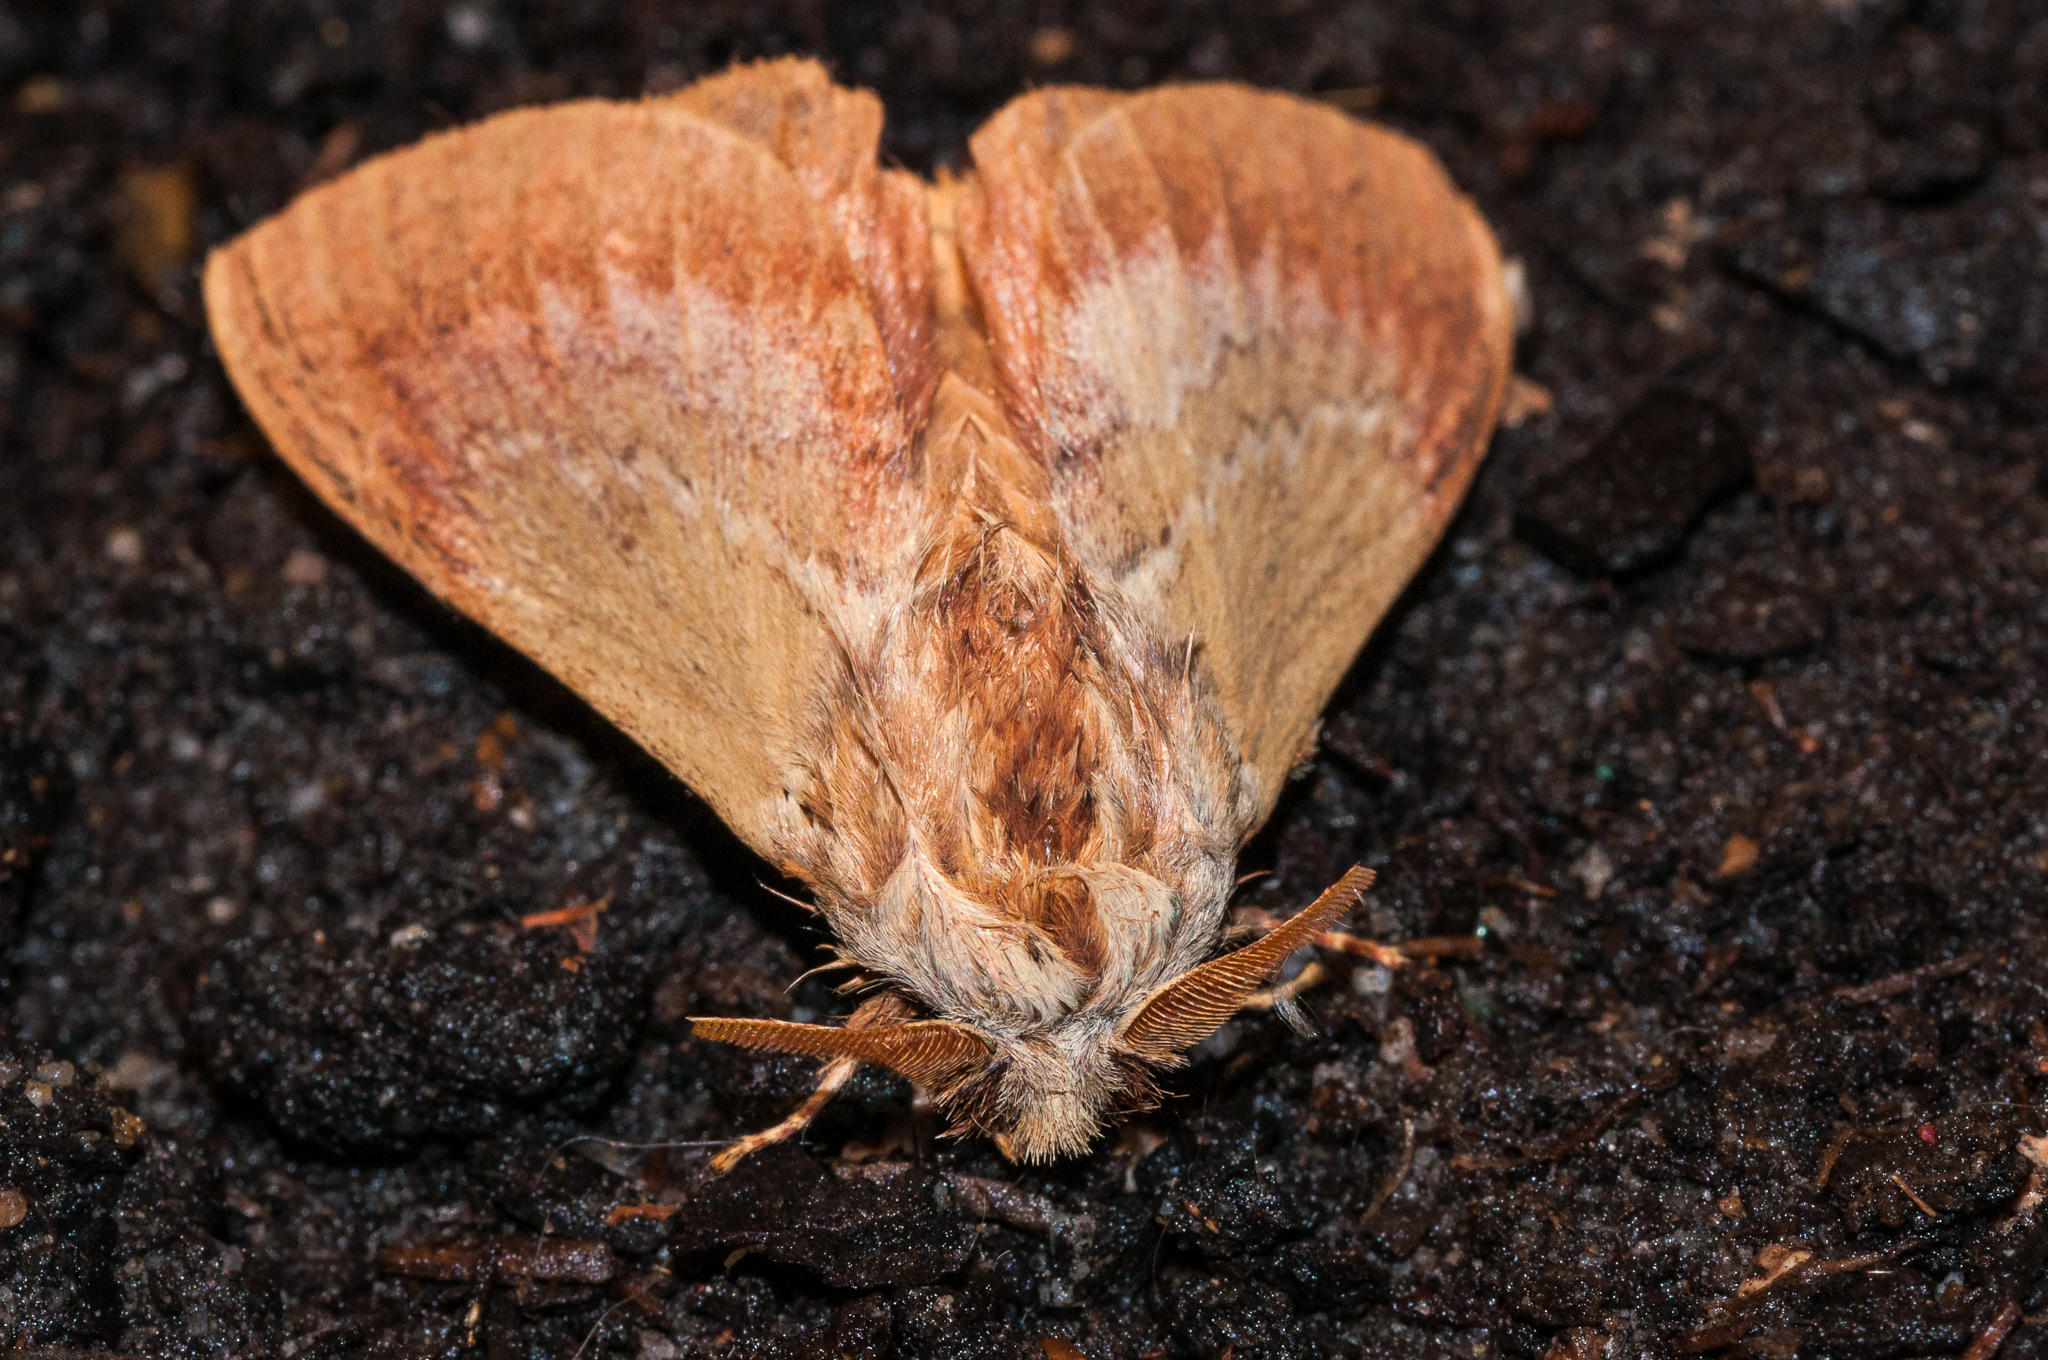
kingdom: Animalia
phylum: Arthropoda
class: Insecta
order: Lepidoptera
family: Lasiocampidae
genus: Eutricha
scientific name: Eutricha capensis
